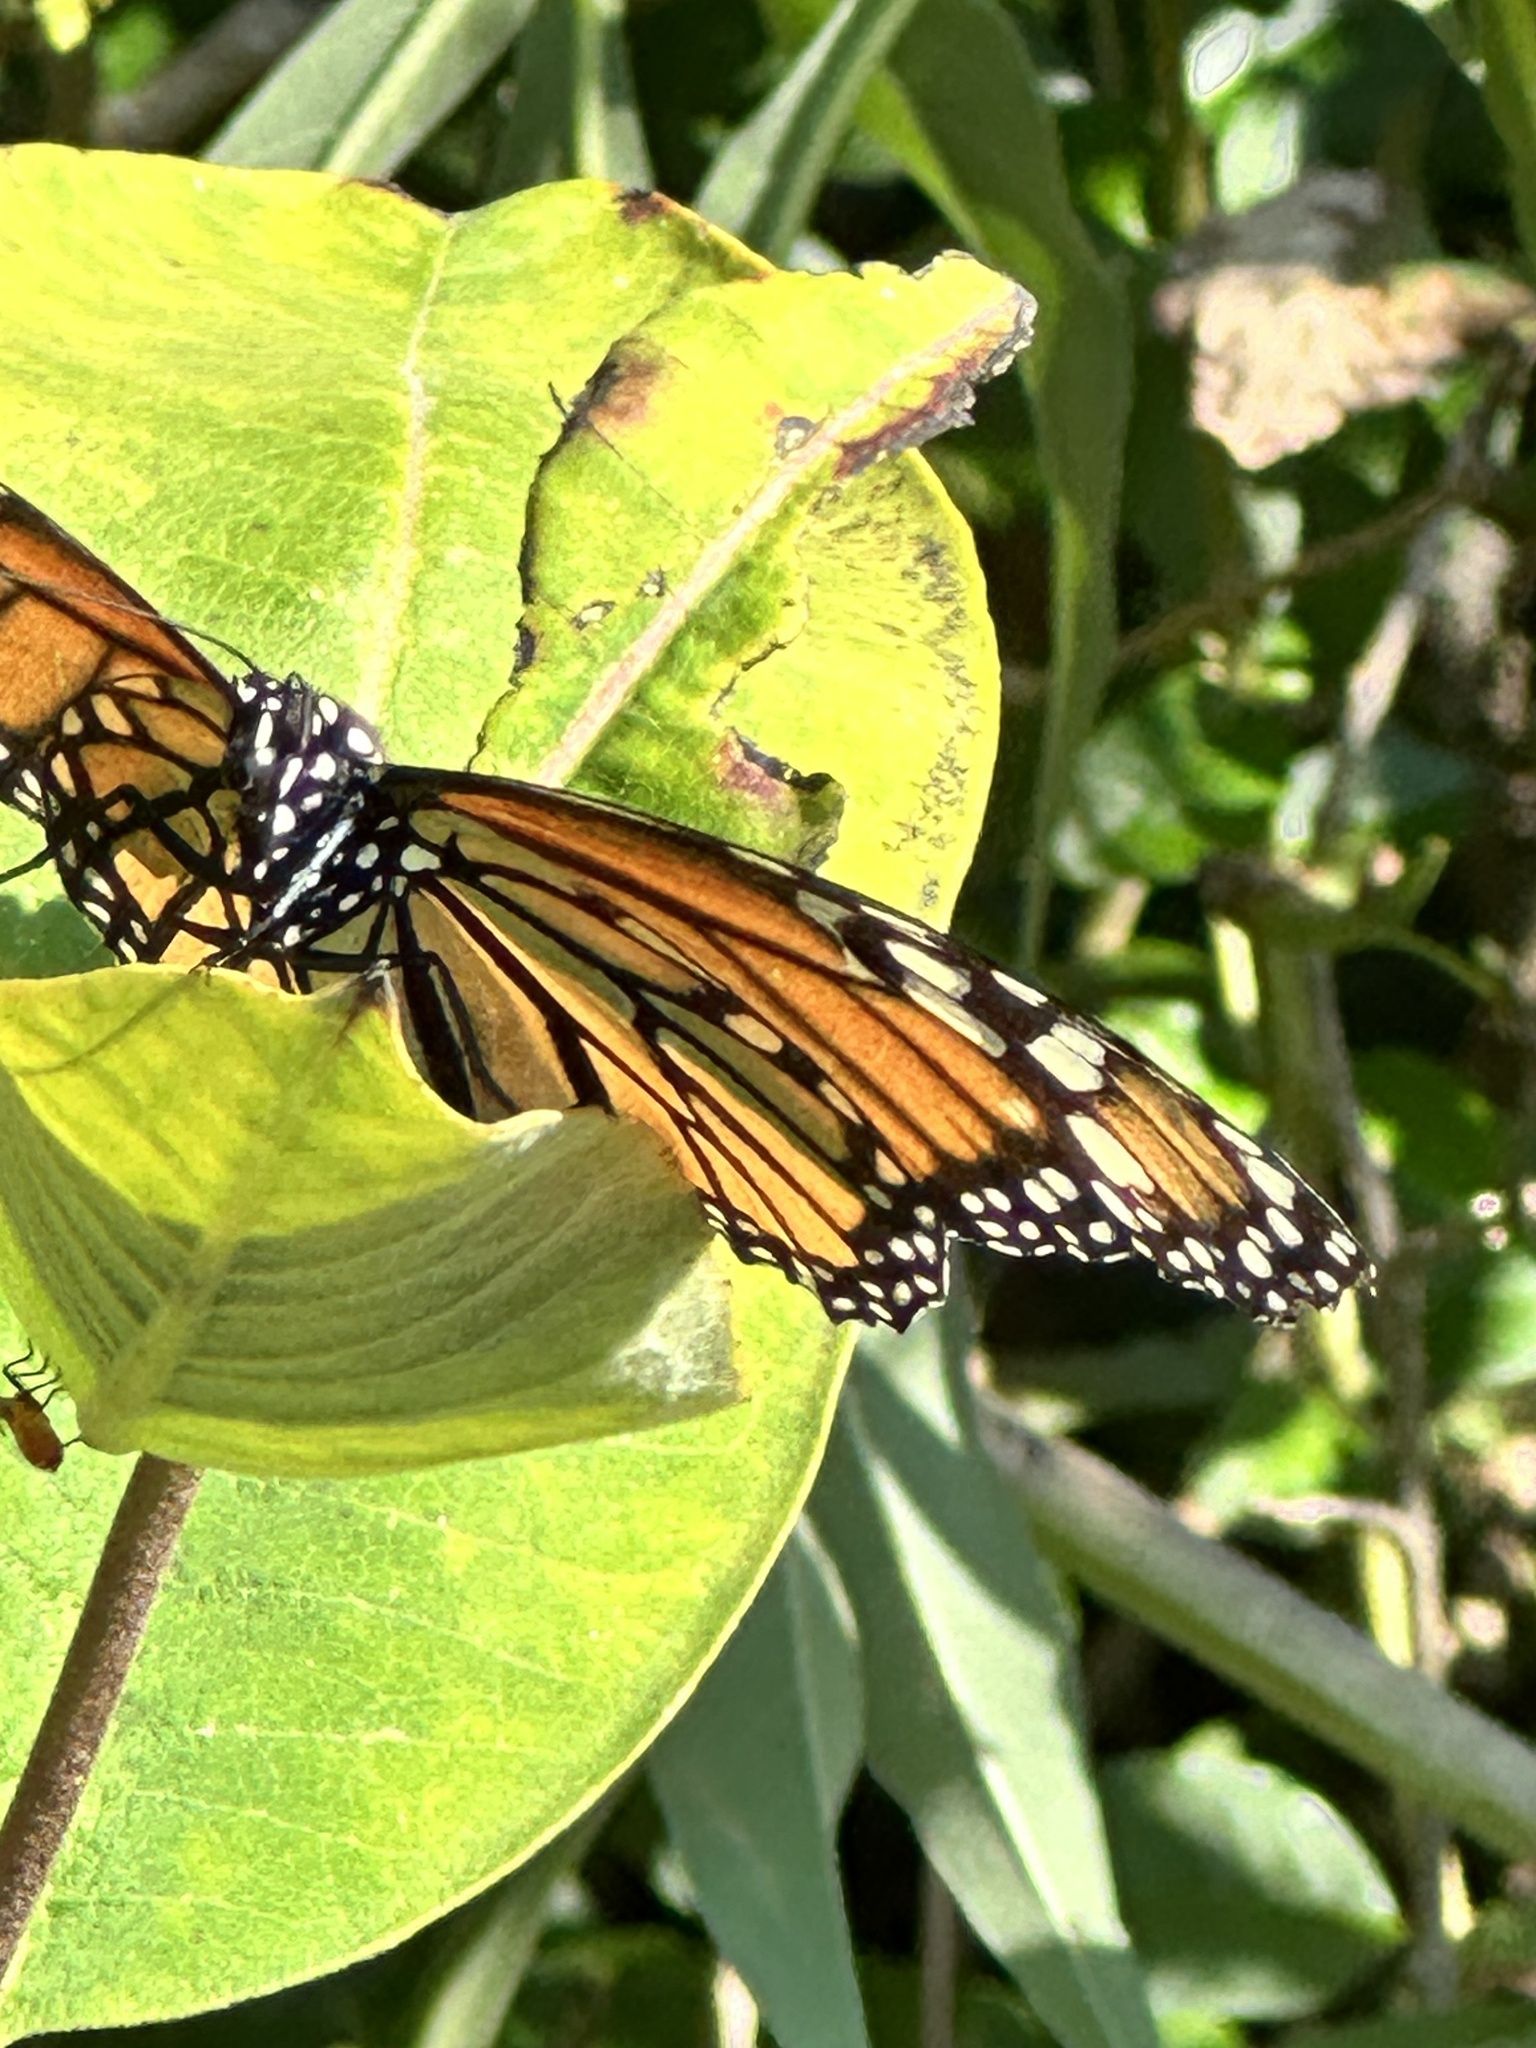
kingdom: Animalia
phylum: Arthropoda
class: Insecta
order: Lepidoptera
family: Nymphalidae
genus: Danaus
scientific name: Danaus plexippus
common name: Monarch
